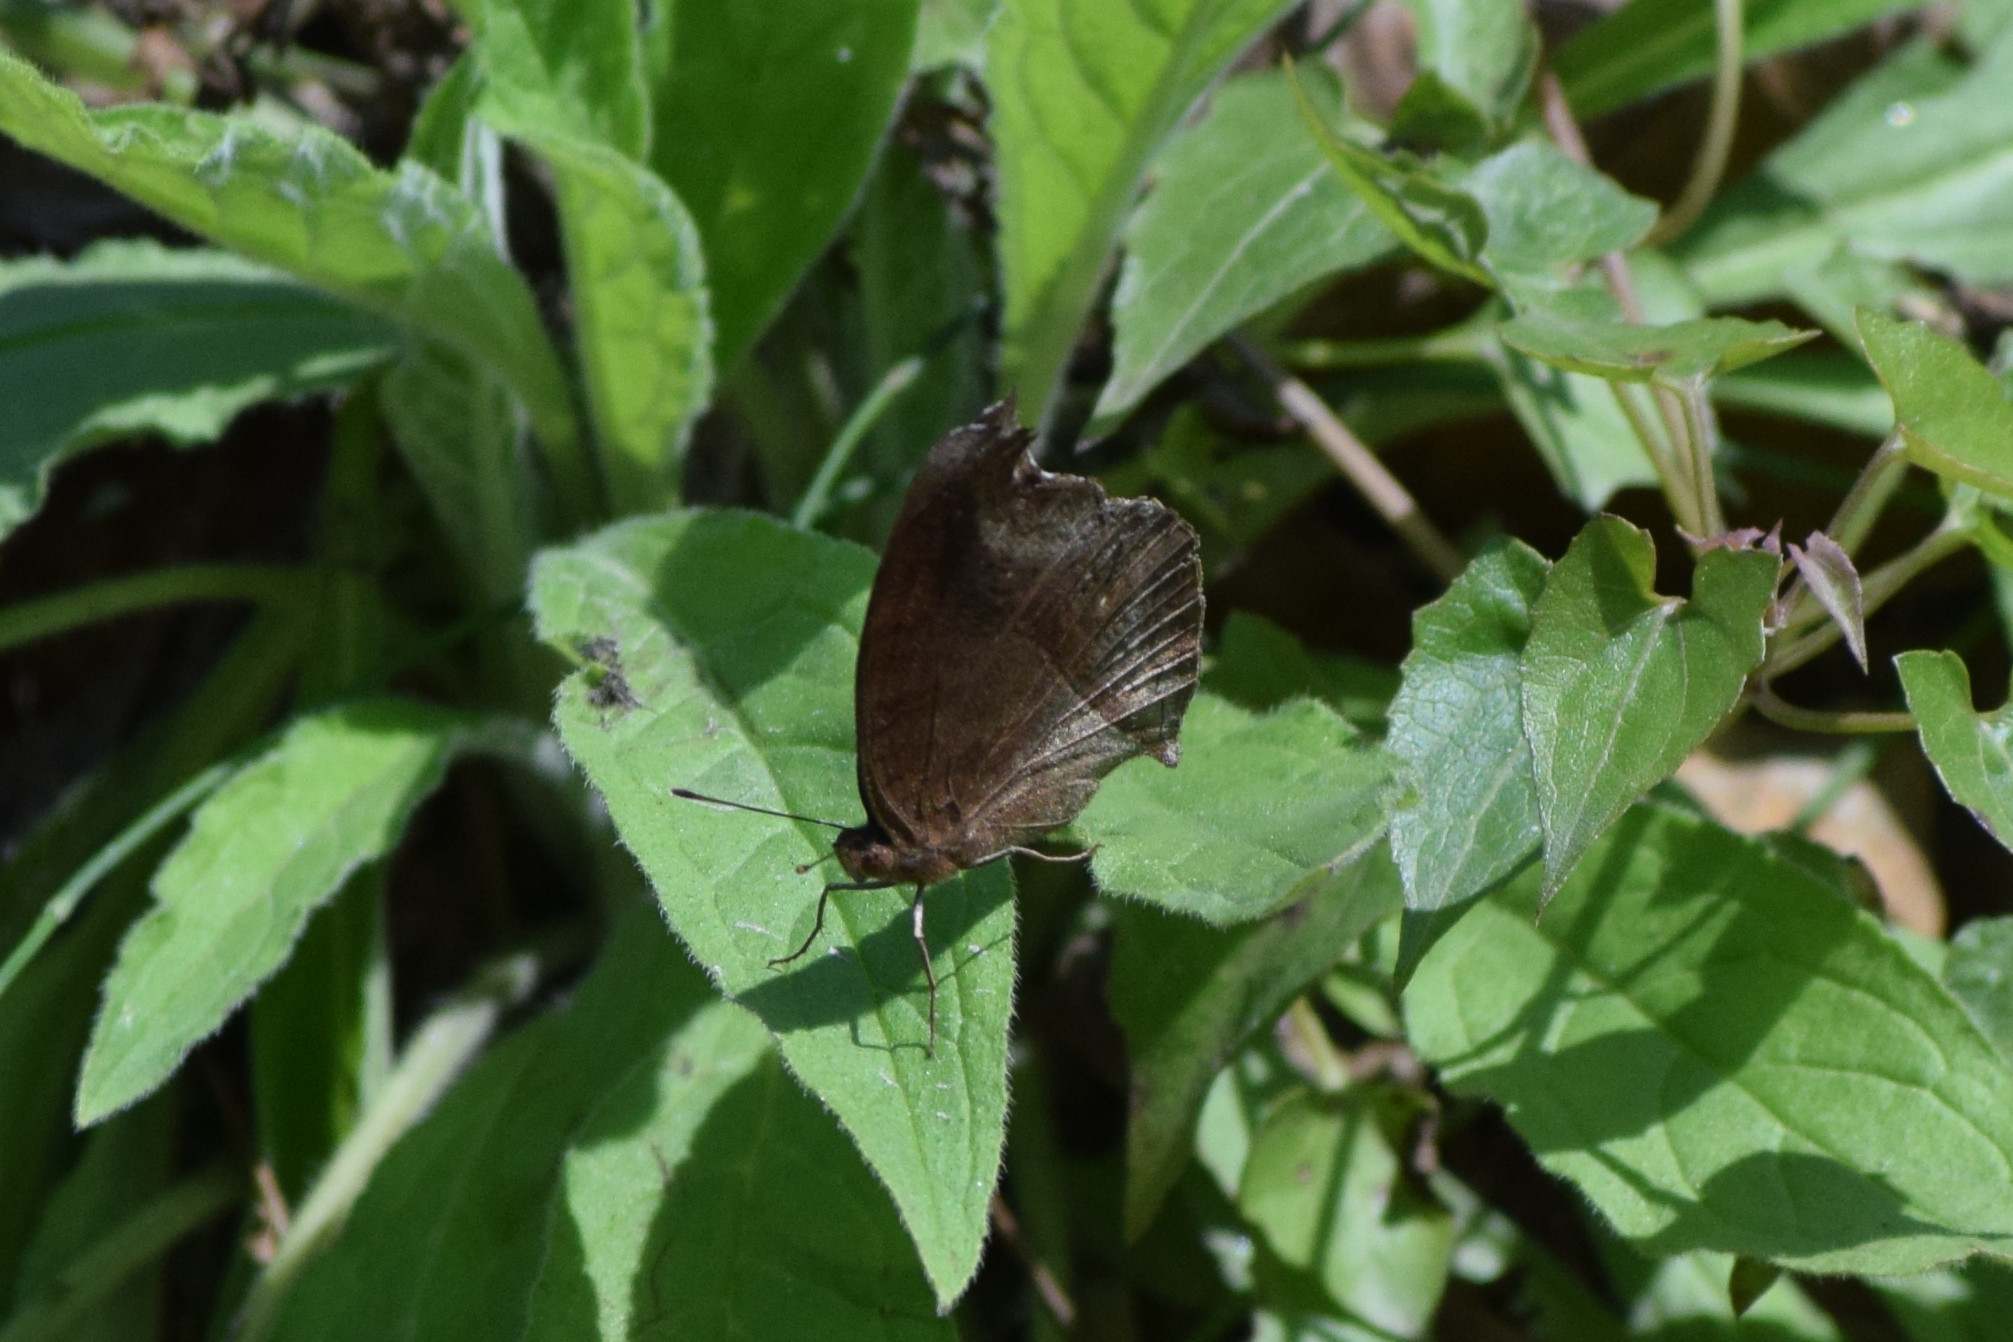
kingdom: Animalia
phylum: Arthropoda
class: Insecta
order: Lepidoptera
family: Nymphalidae
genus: Junonia
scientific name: Junonia iphita
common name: Chocolate pansy
